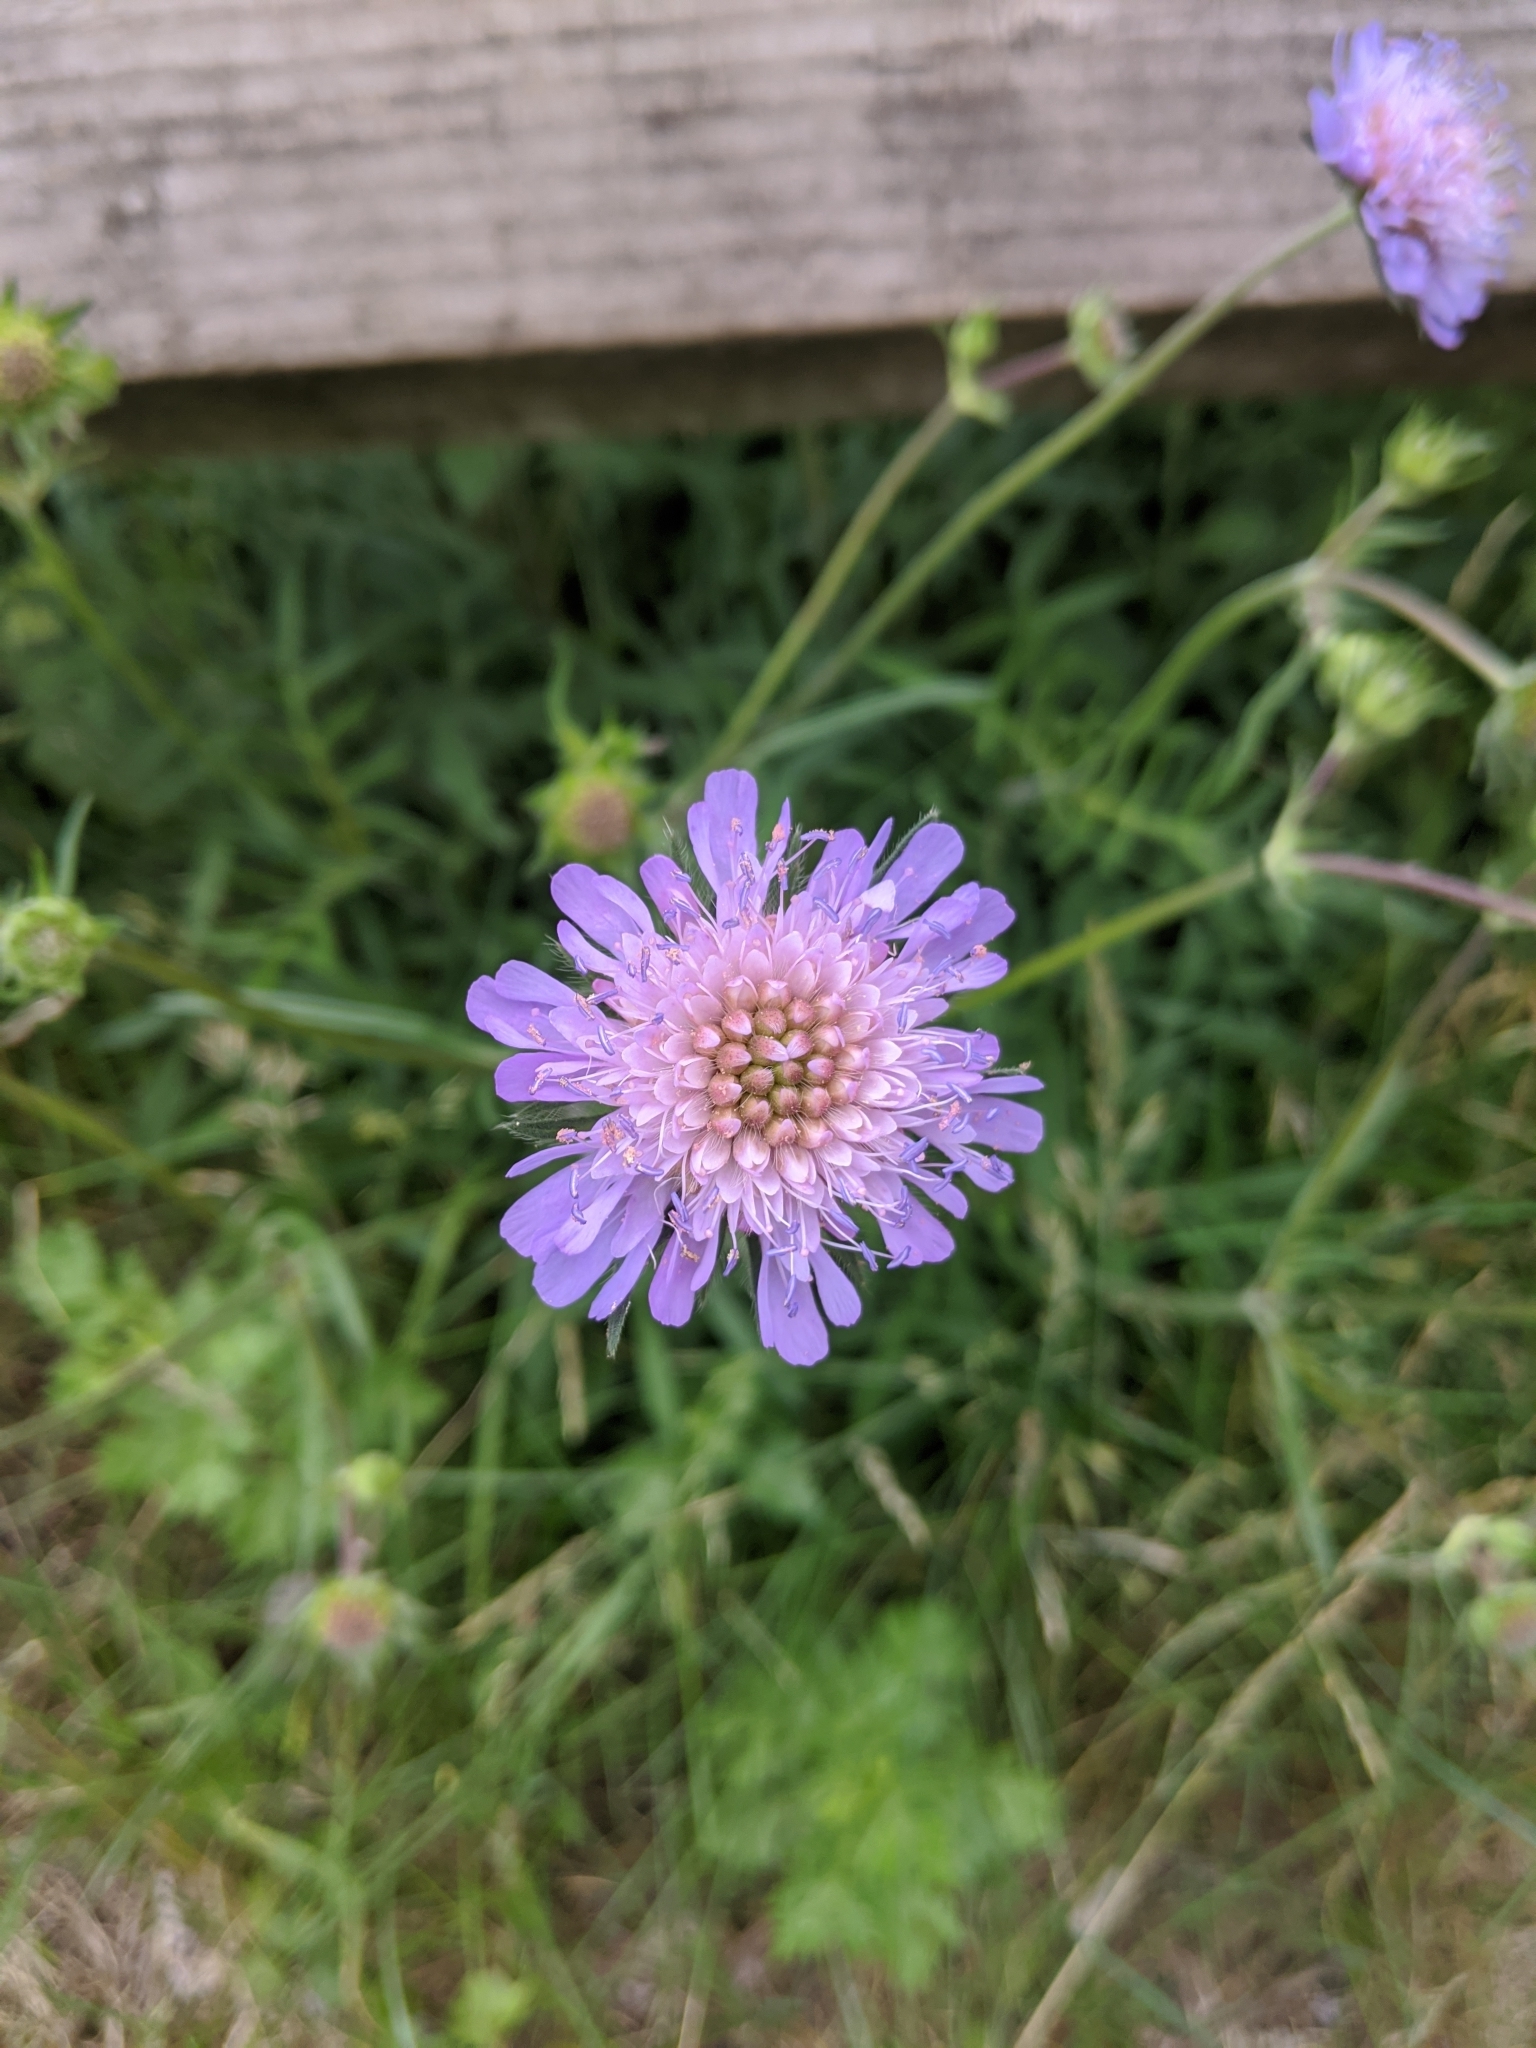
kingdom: Plantae
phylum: Tracheophyta
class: Magnoliopsida
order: Dipsacales
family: Caprifoliaceae
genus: Knautia
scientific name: Knautia arvensis
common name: Field scabiosa
